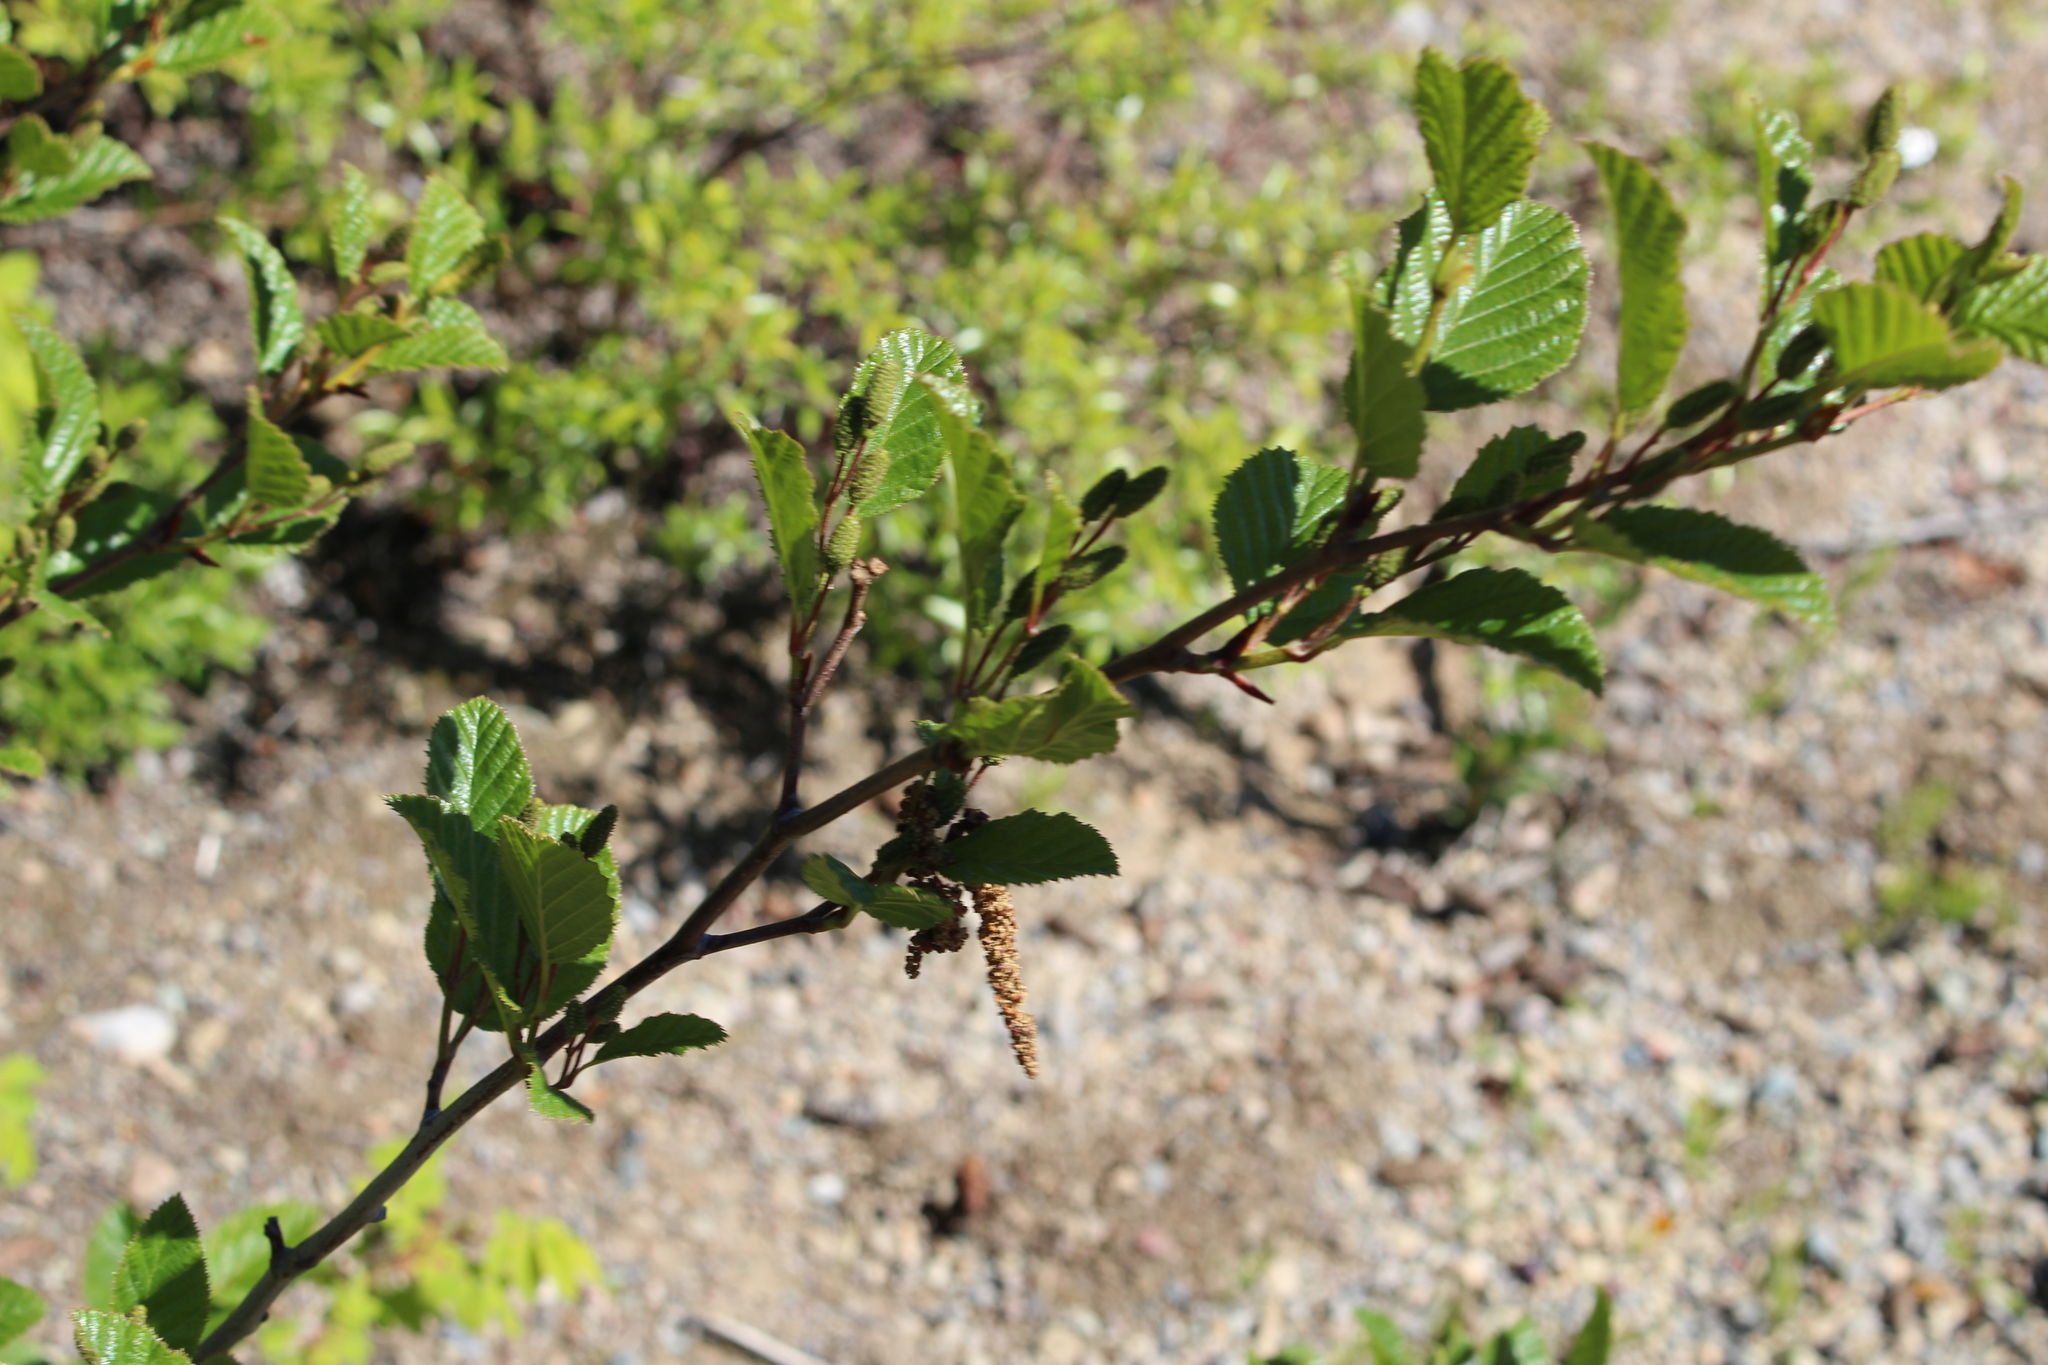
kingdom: Plantae
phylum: Tracheophyta
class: Magnoliopsida
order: Fagales
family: Betulaceae
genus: Alnus
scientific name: Alnus alnobetula
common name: Green alder
